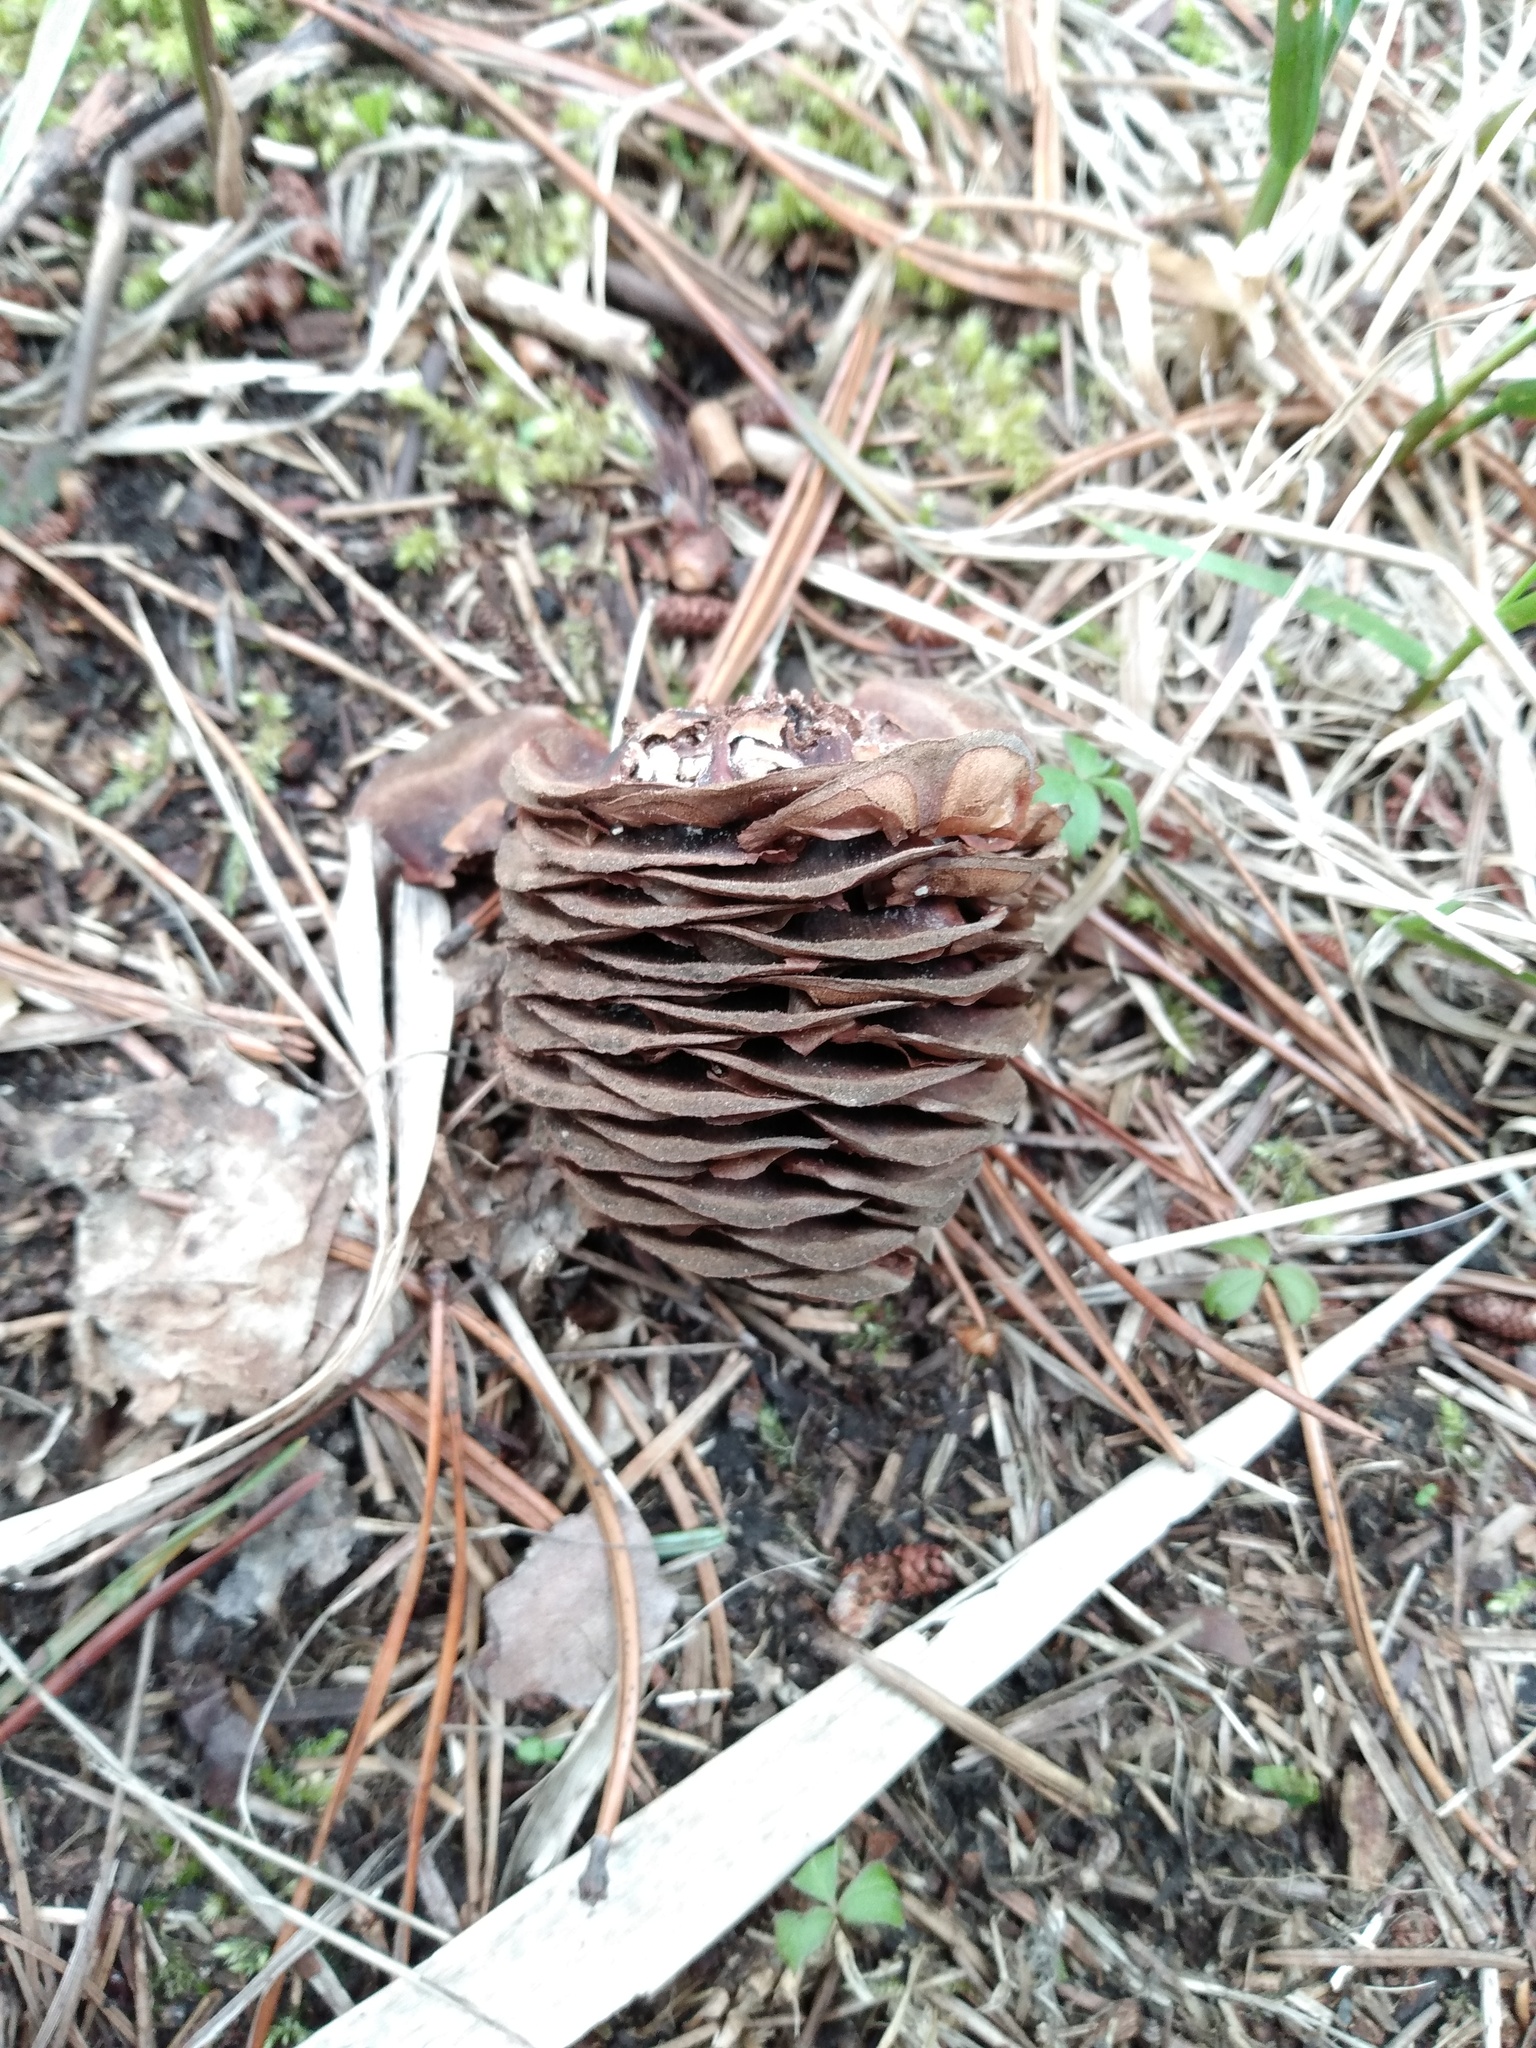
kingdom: Plantae
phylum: Tracheophyta
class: Pinopsida
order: Pinales
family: Pinaceae
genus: Abies
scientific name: Abies grandis
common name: Giant fir
